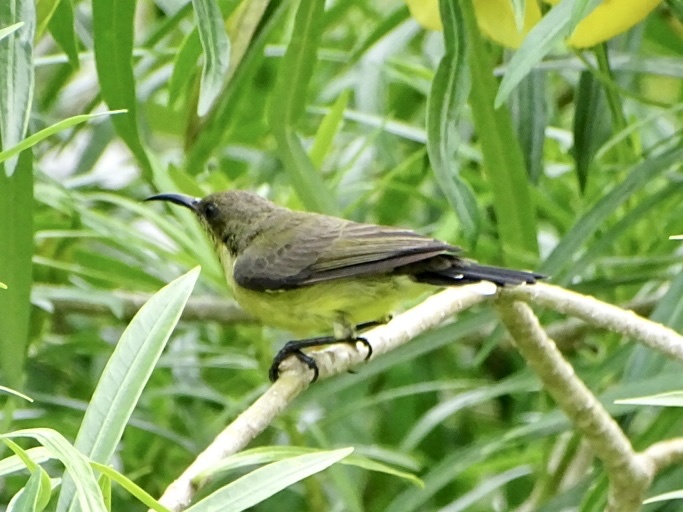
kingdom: Animalia
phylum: Chordata
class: Aves
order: Passeriformes
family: Nectariniidae
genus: Cinnyris
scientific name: Cinnyris
